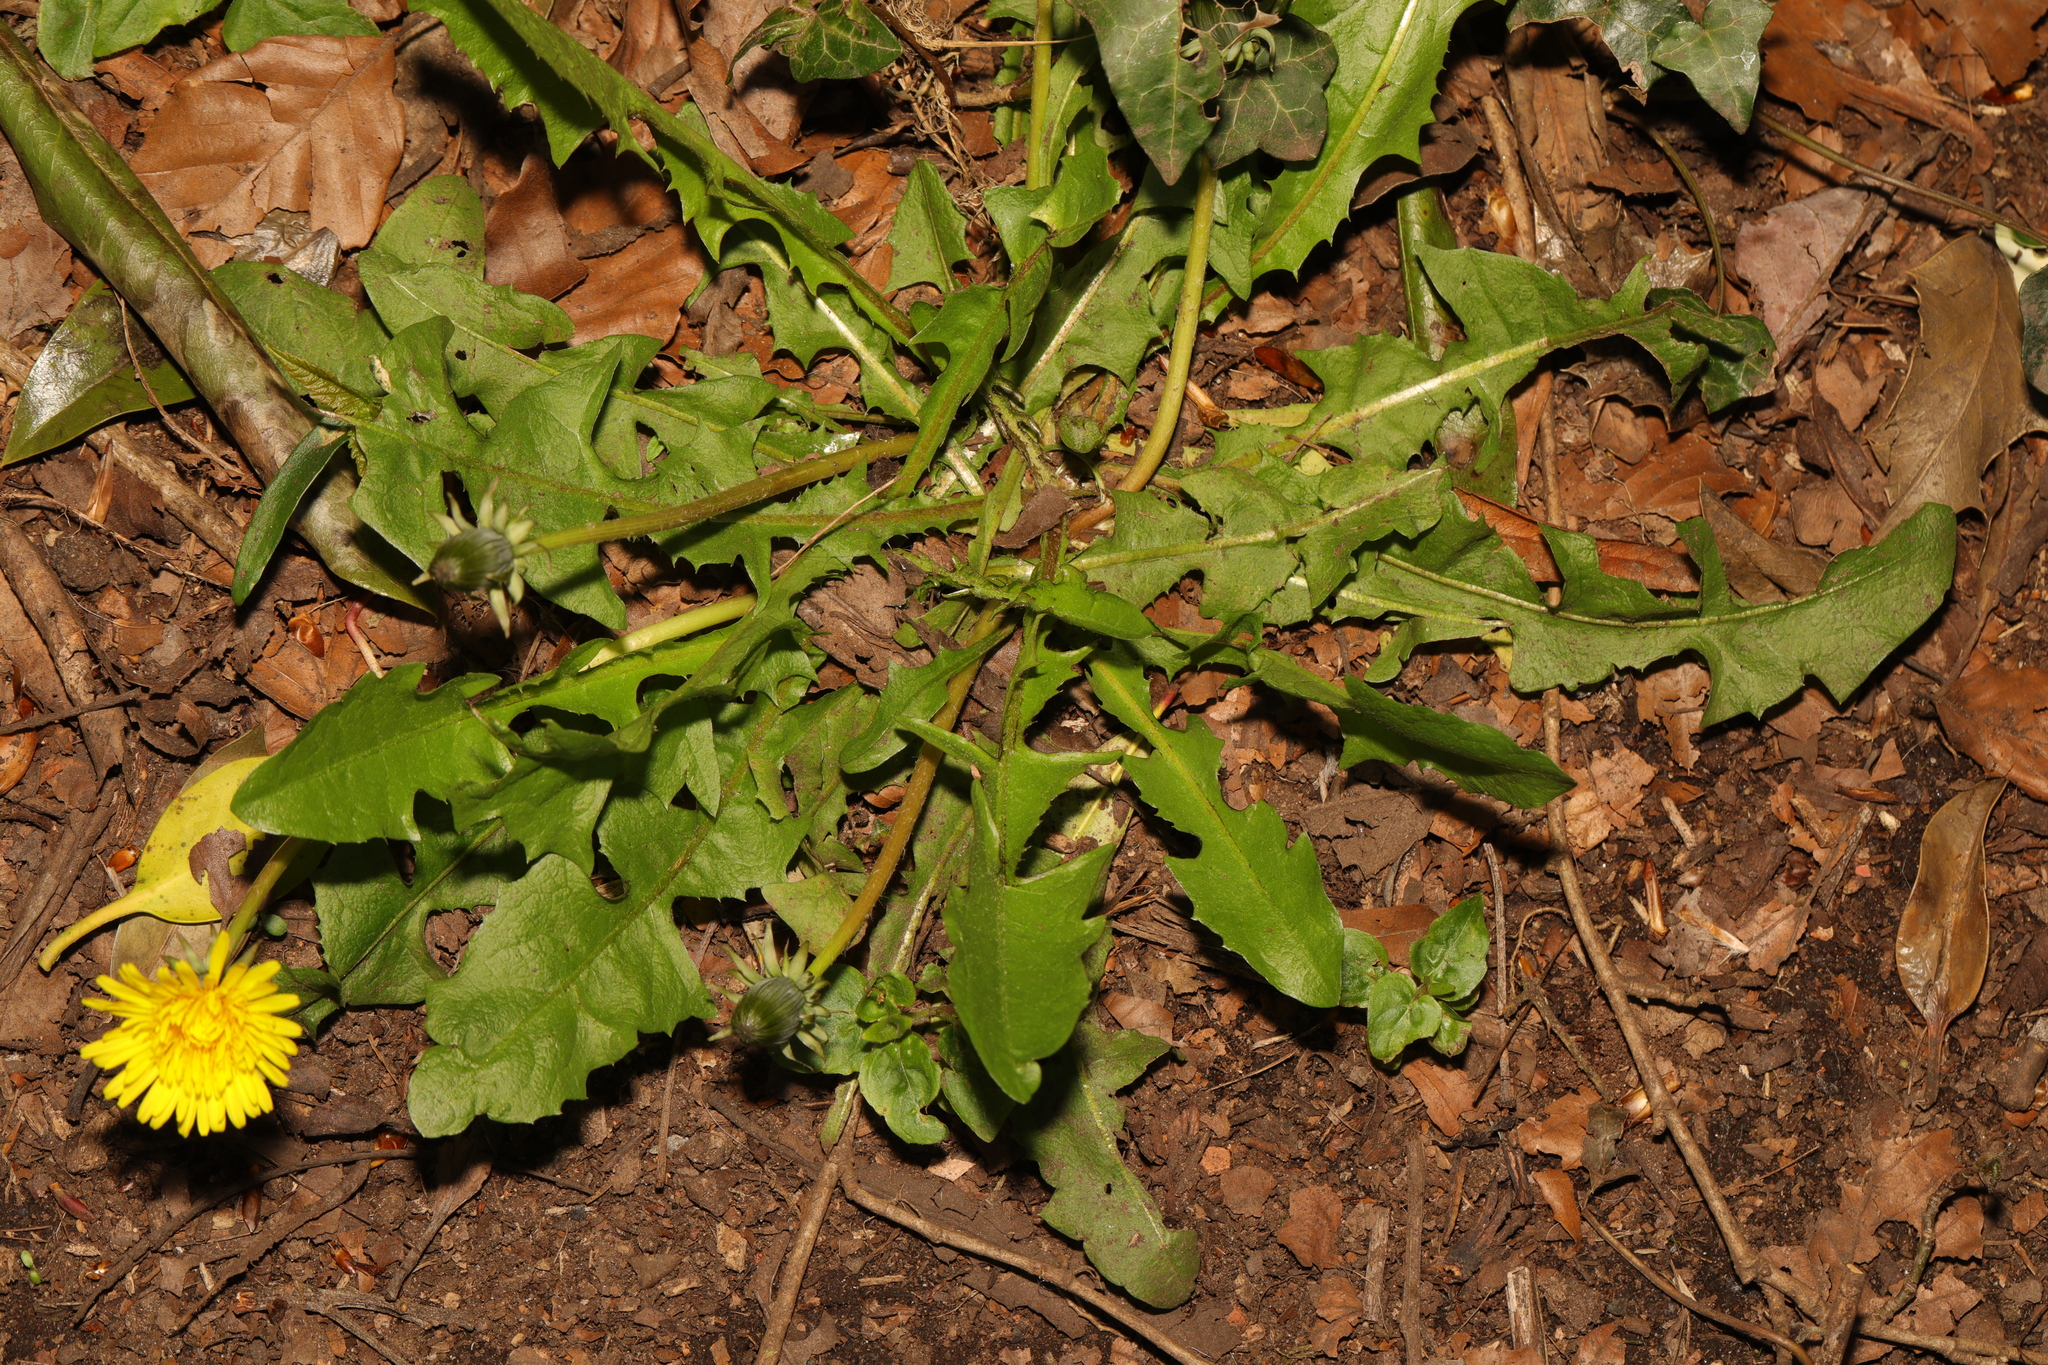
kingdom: Plantae
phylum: Tracheophyta
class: Magnoliopsida
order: Asterales
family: Asteraceae
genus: Taraxacum
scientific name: Taraxacum officinale
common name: Common dandelion
